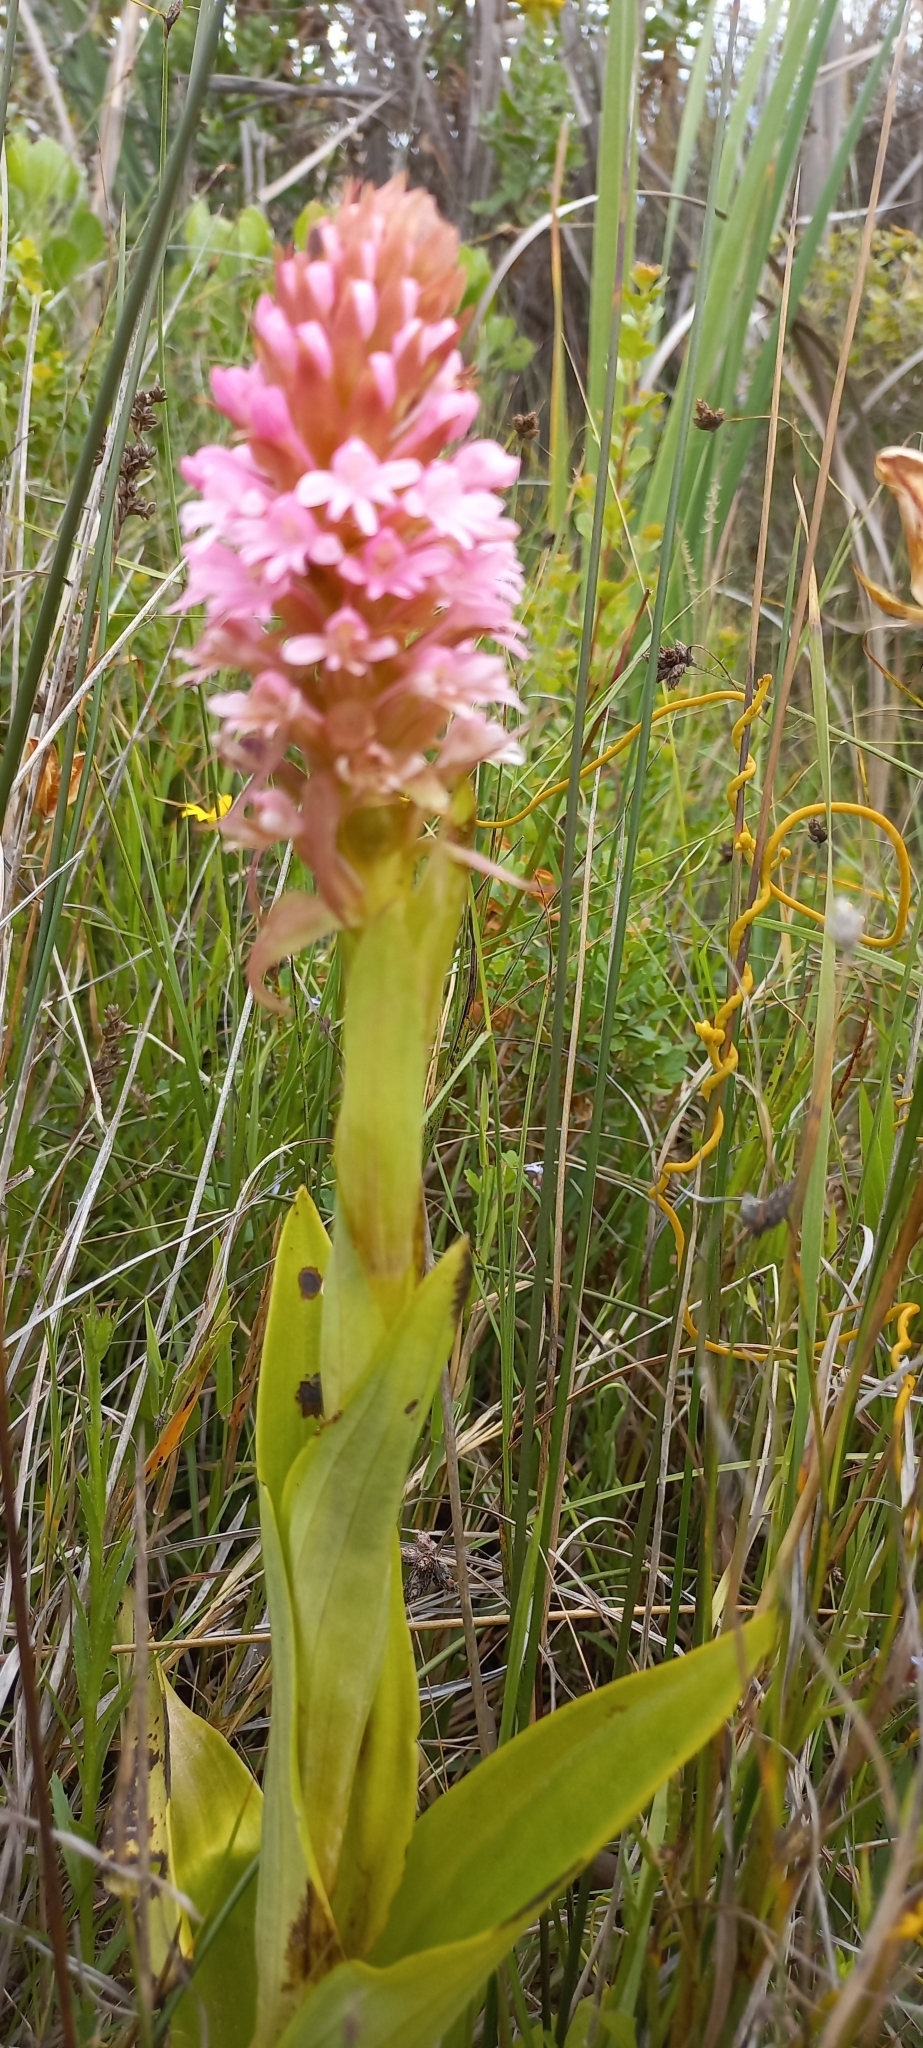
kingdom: Plantae
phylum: Tracheophyta
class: Liliopsida
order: Asparagales
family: Orchidaceae
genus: Satyrium
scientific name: Satyrium hallackii
